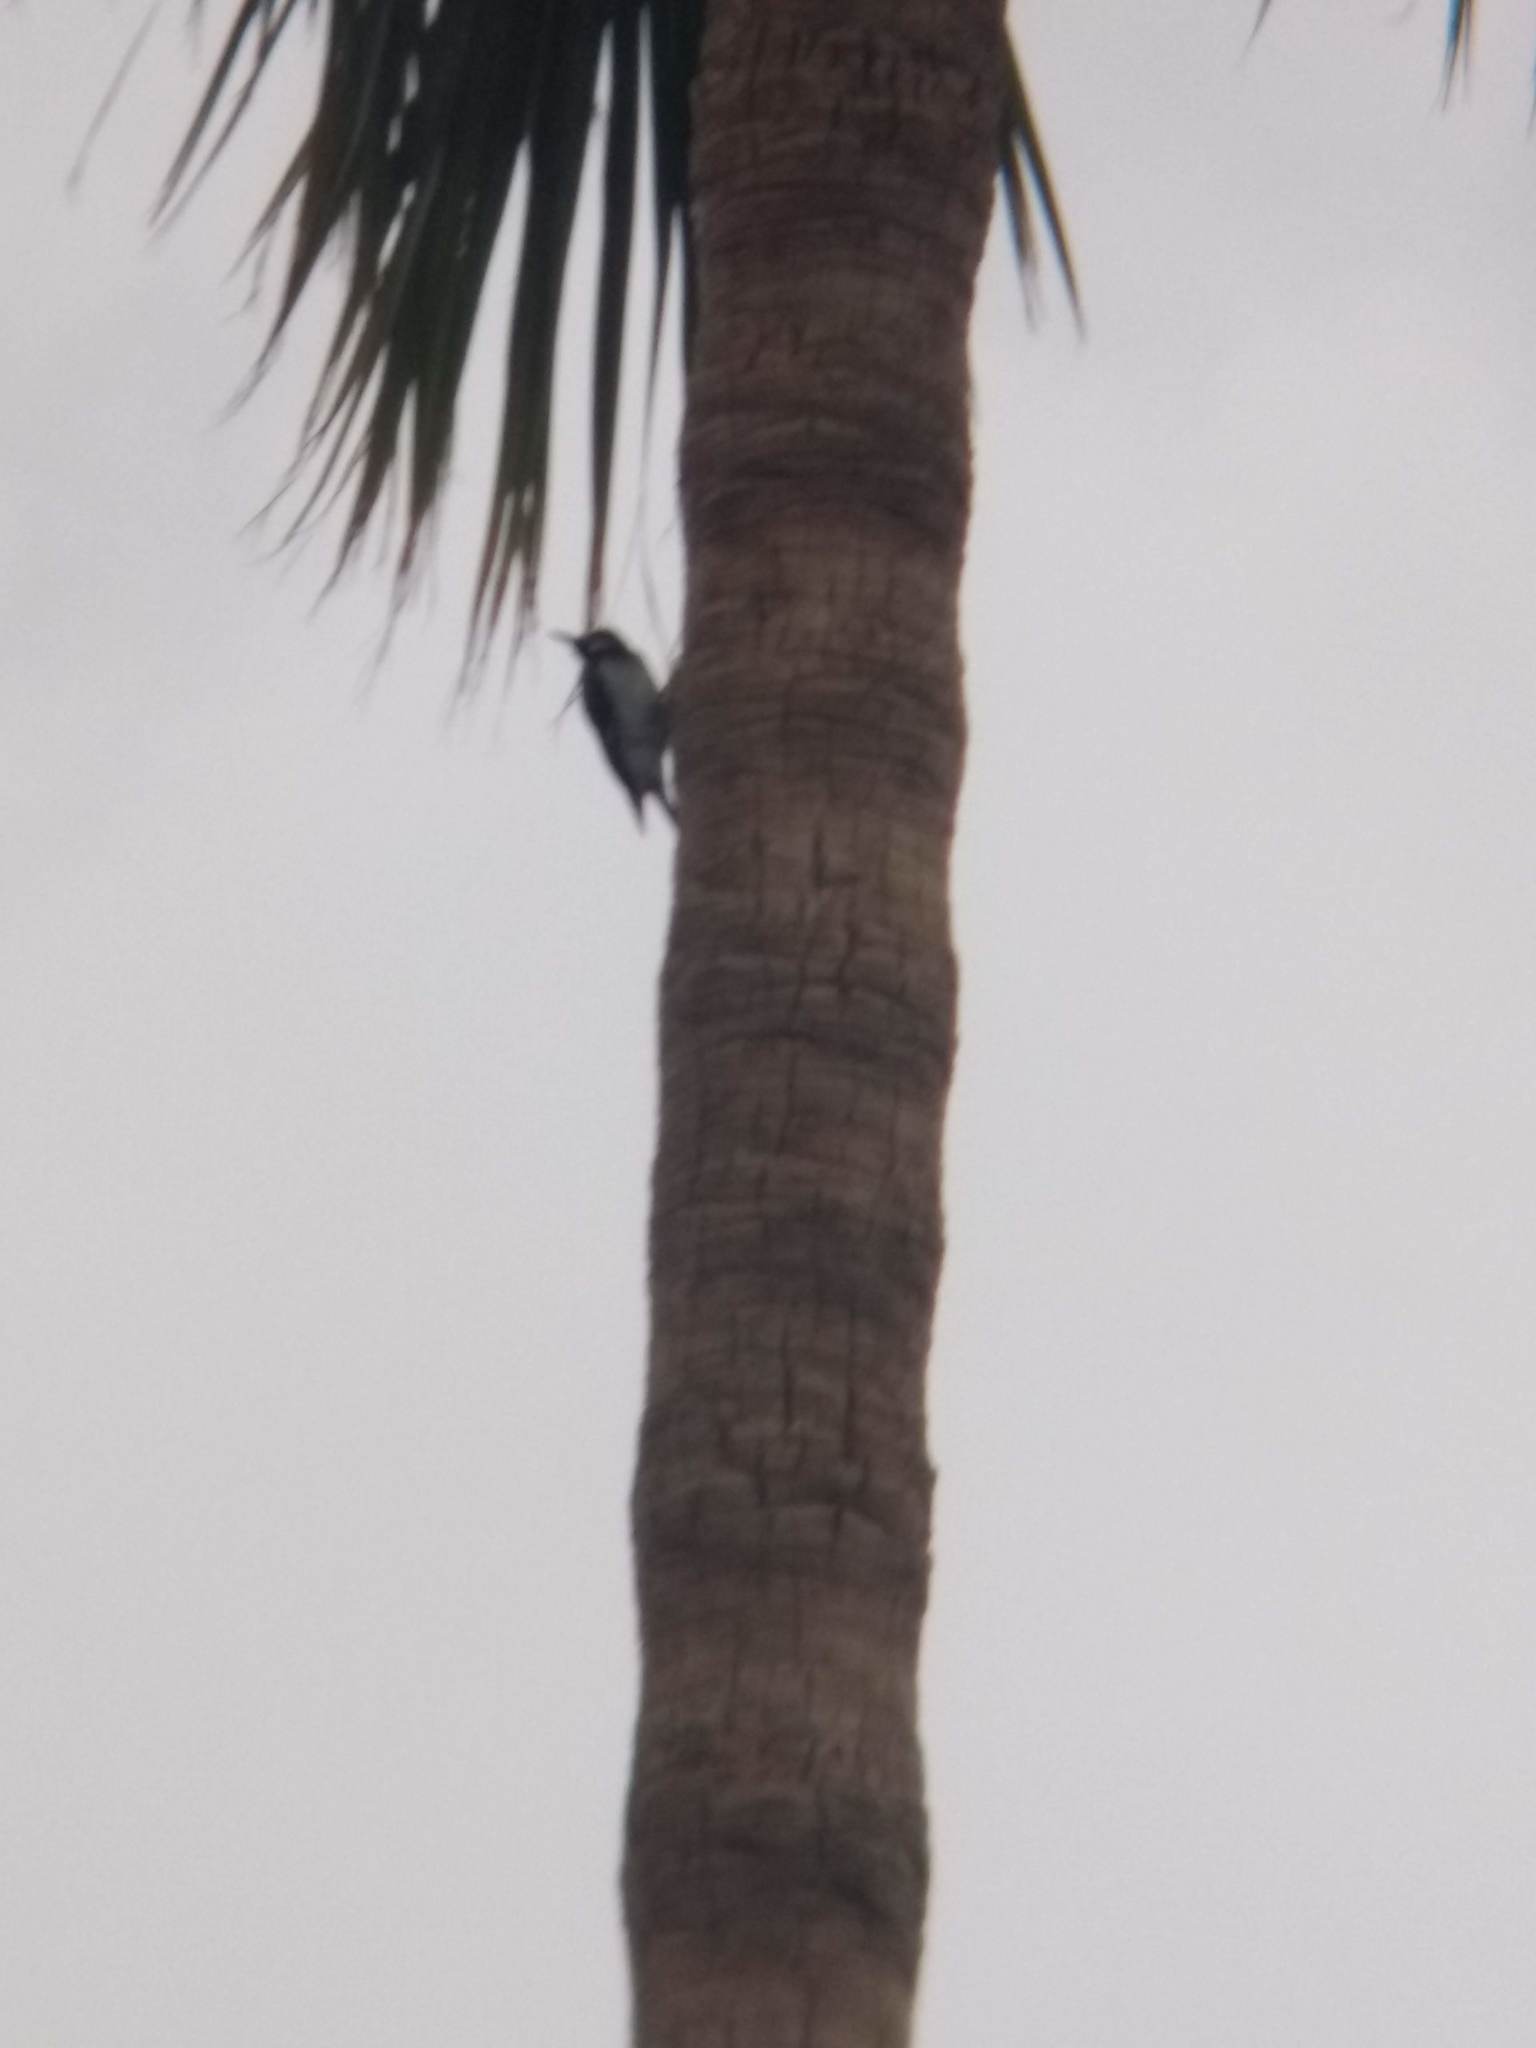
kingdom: Animalia
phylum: Chordata
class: Aves
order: Piciformes
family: Picidae
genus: Melanerpes
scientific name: Melanerpes formicivorus
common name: Acorn woodpecker
